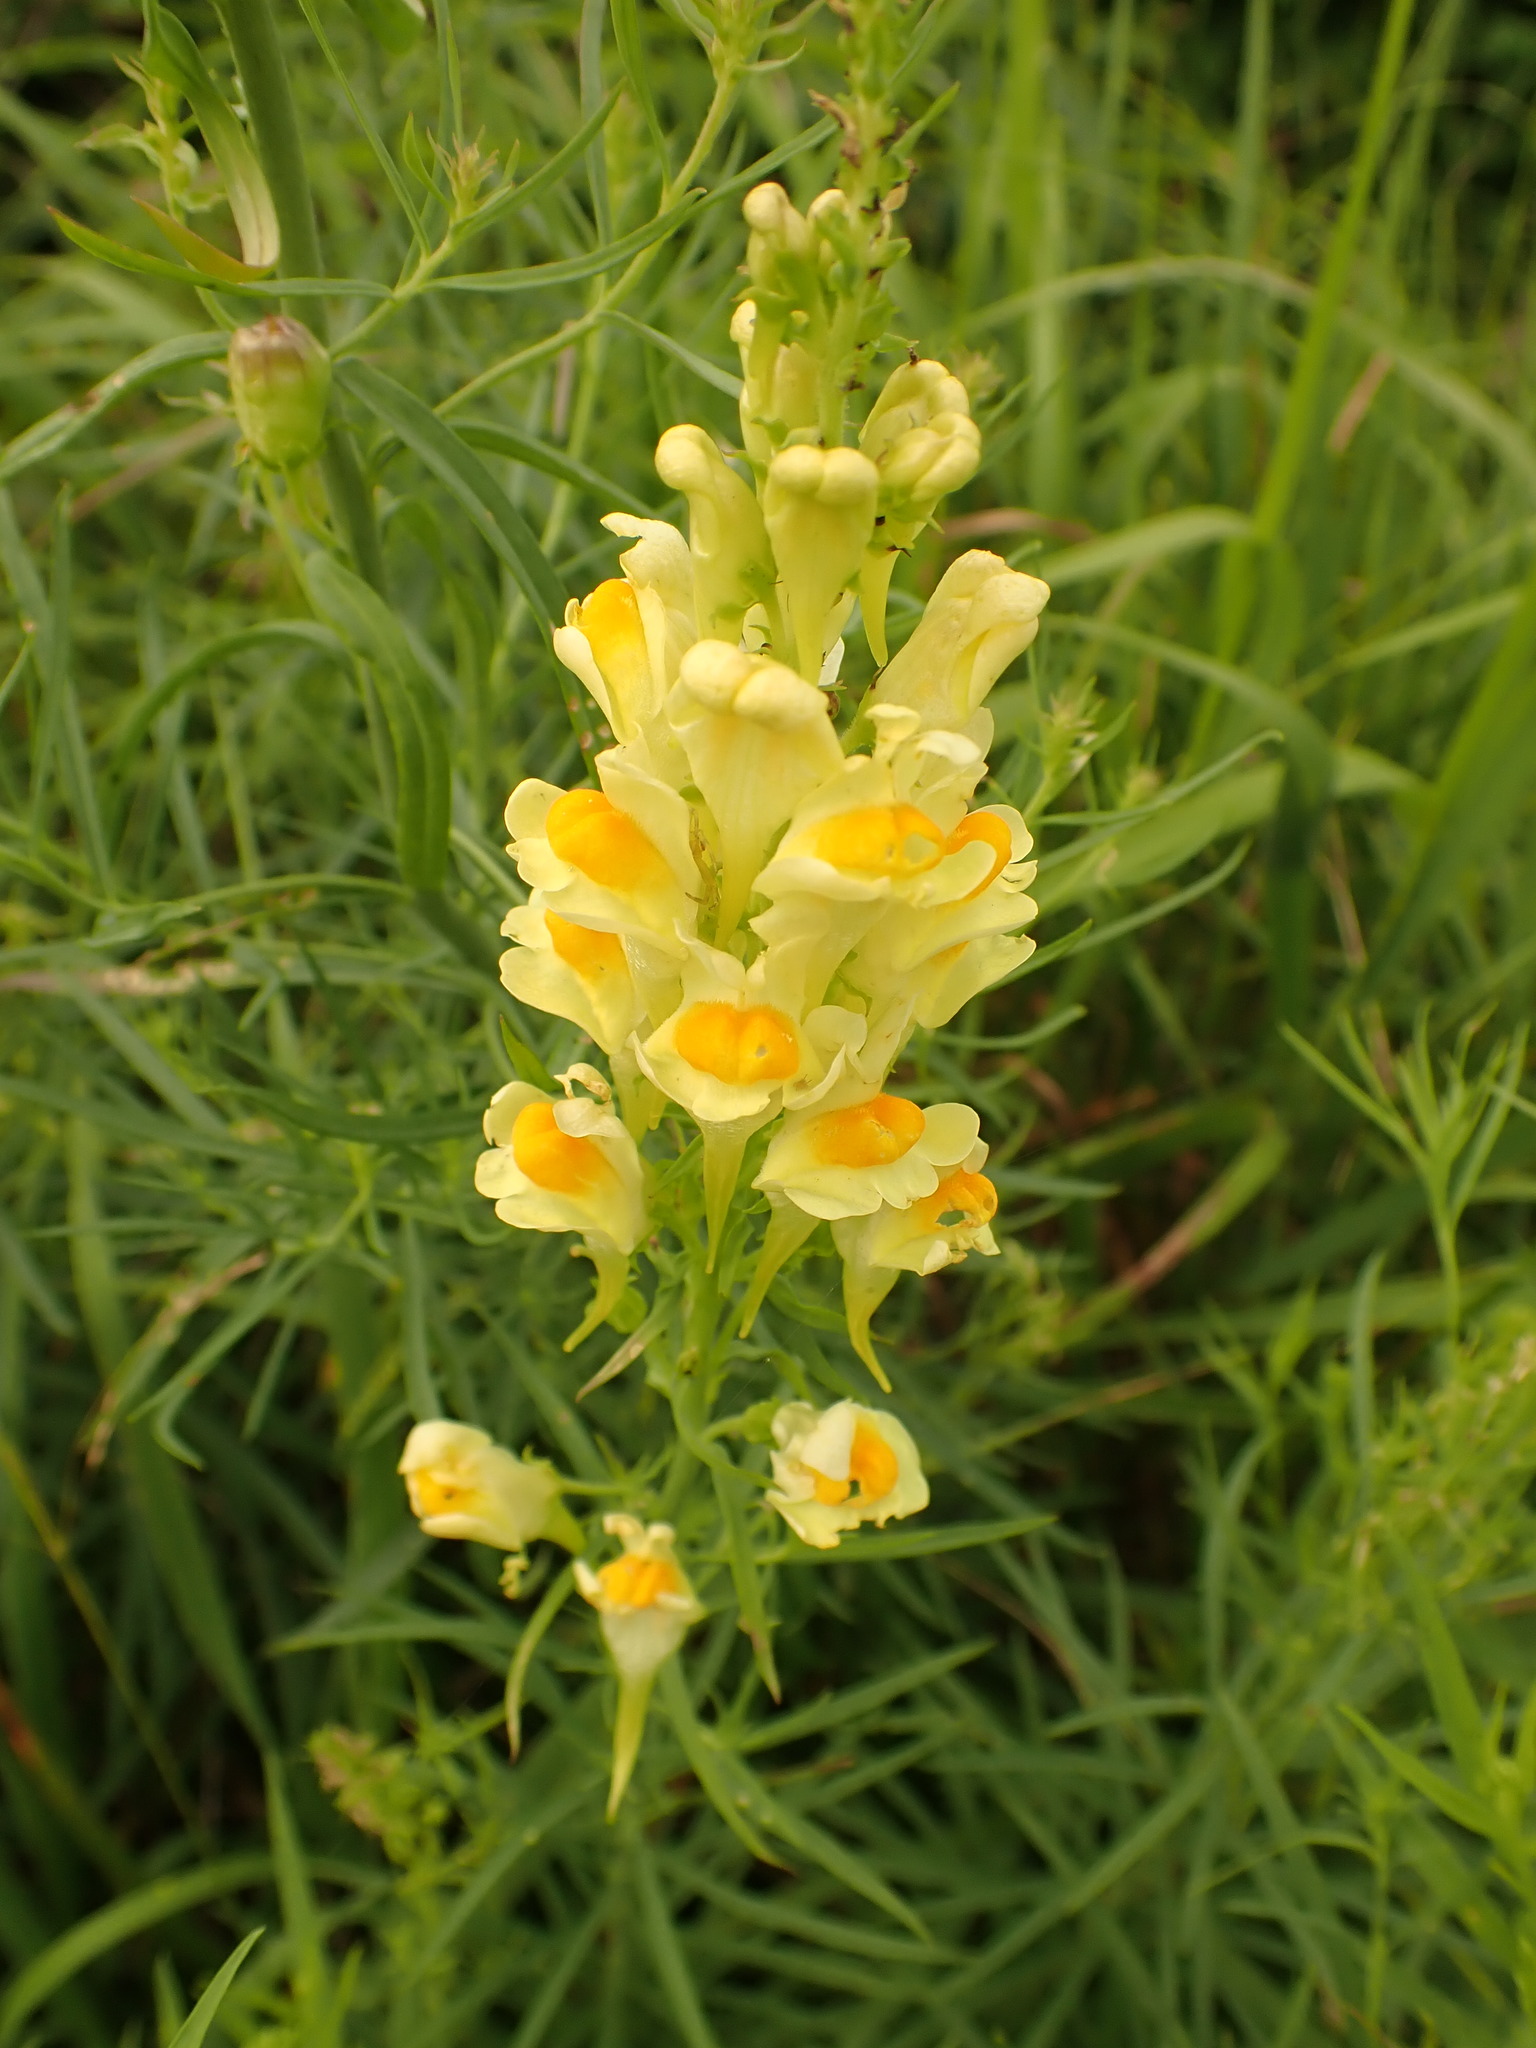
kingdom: Plantae
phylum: Tracheophyta
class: Magnoliopsida
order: Lamiales
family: Plantaginaceae
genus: Linaria
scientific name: Linaria vulgaris
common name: Butter and eggs
